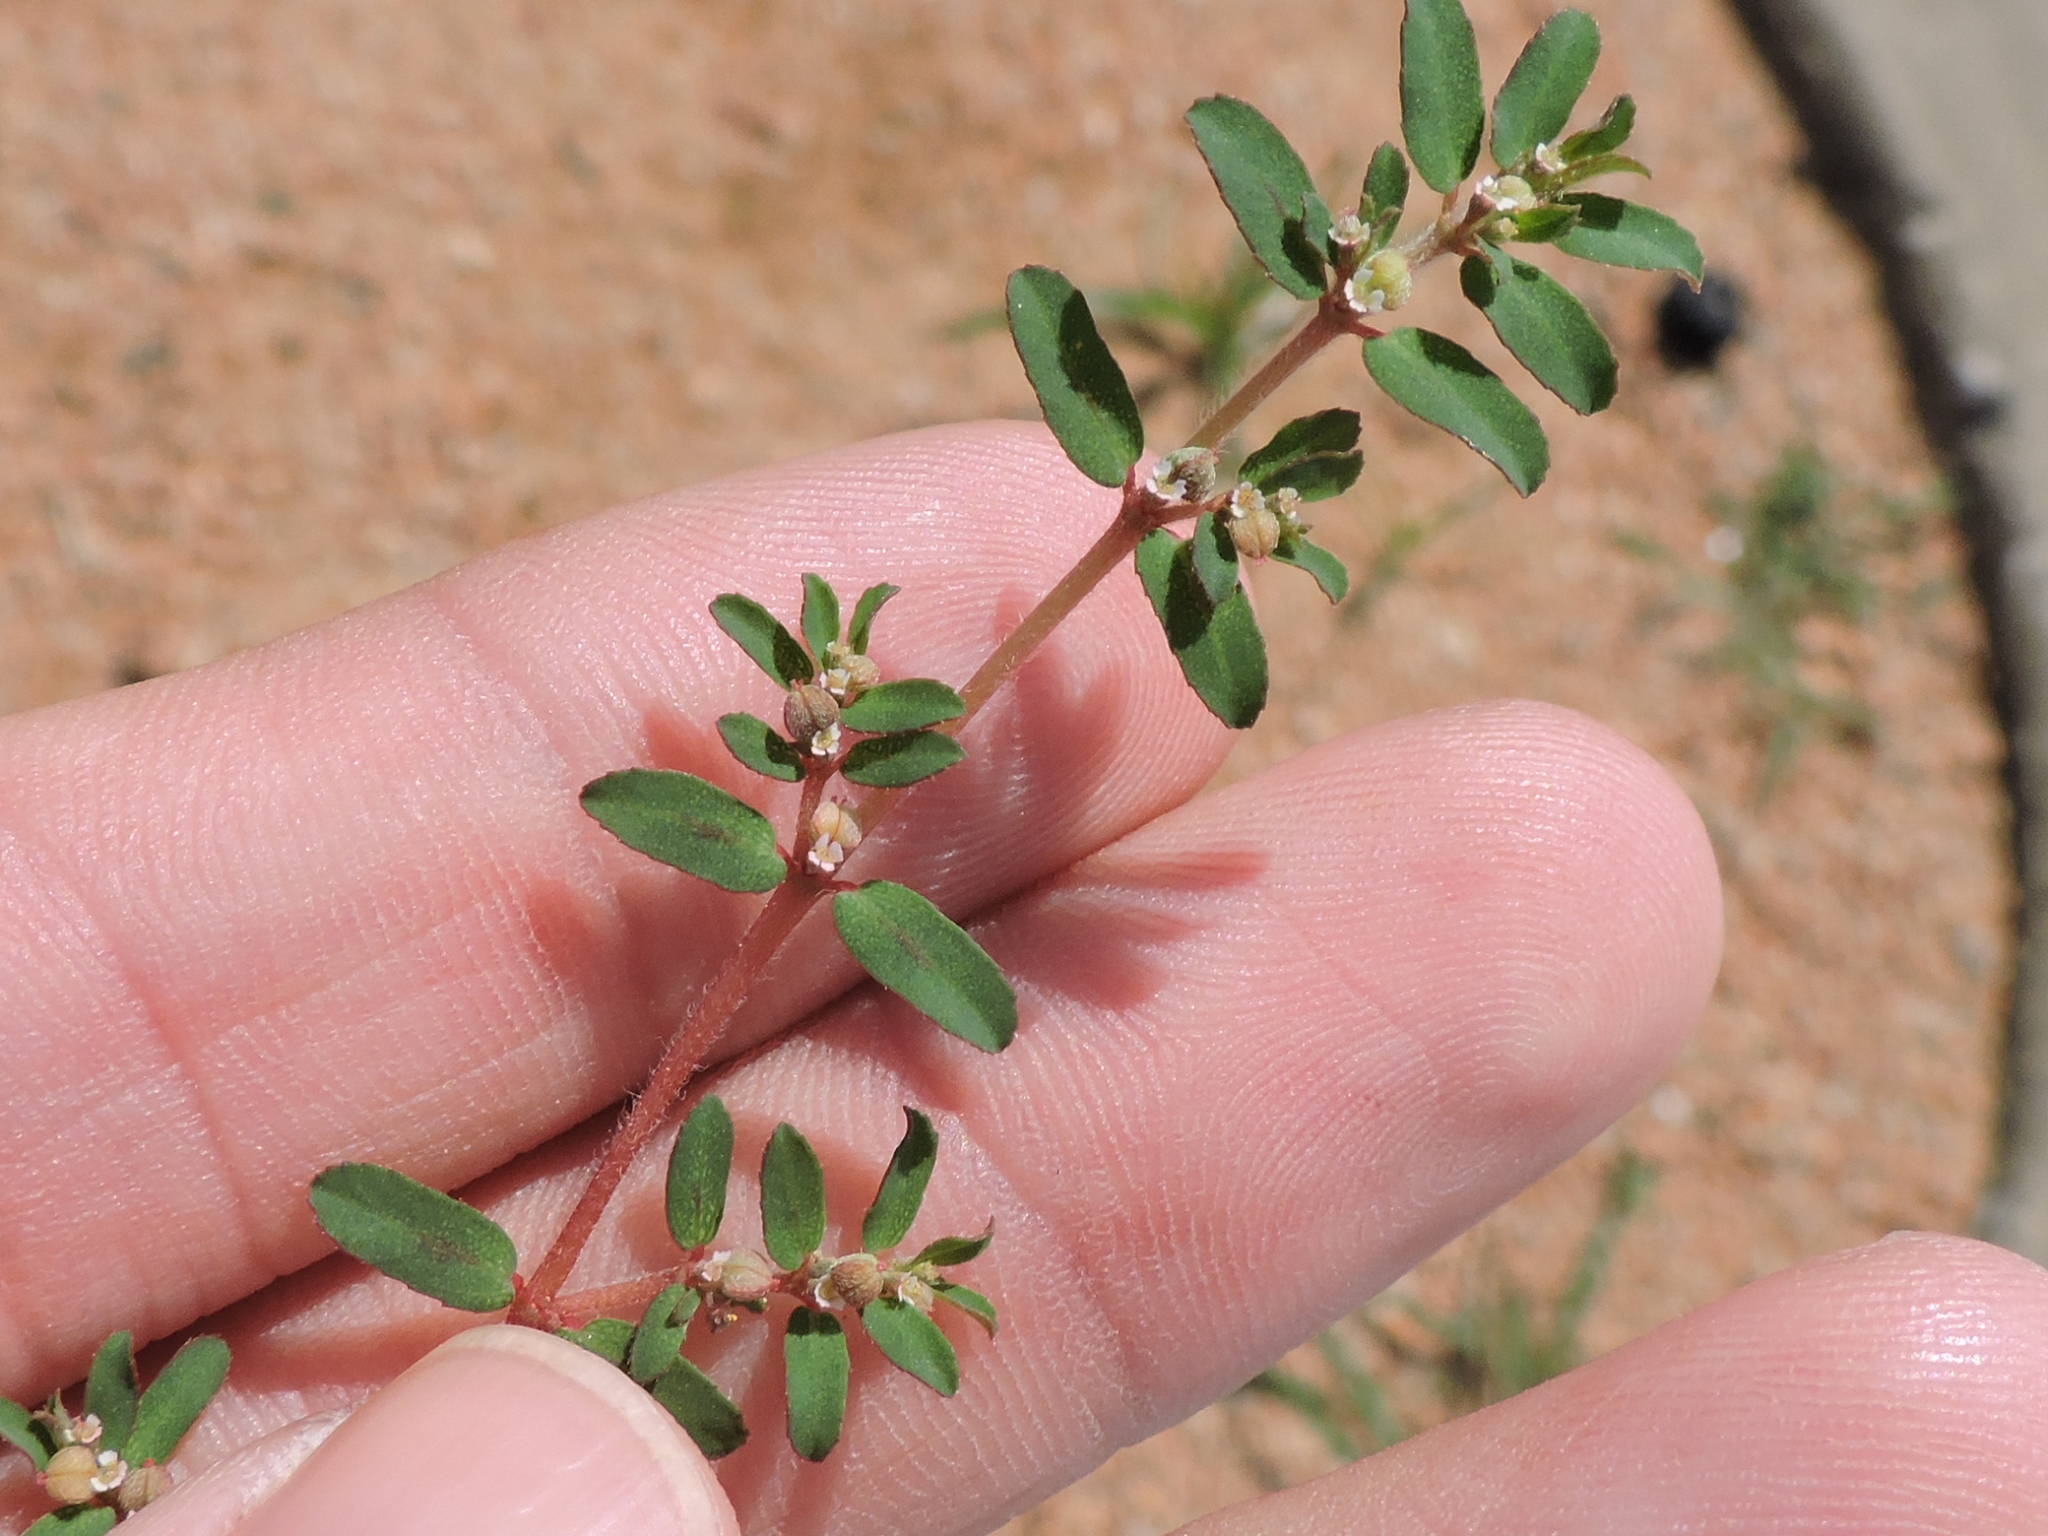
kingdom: Plantae
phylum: Tracheophyta
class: Magnoliopsida
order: Malpighiales
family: Euphorbiaceae
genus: Euphorbia
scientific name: Euphorbia maculata
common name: Spotted spurge
